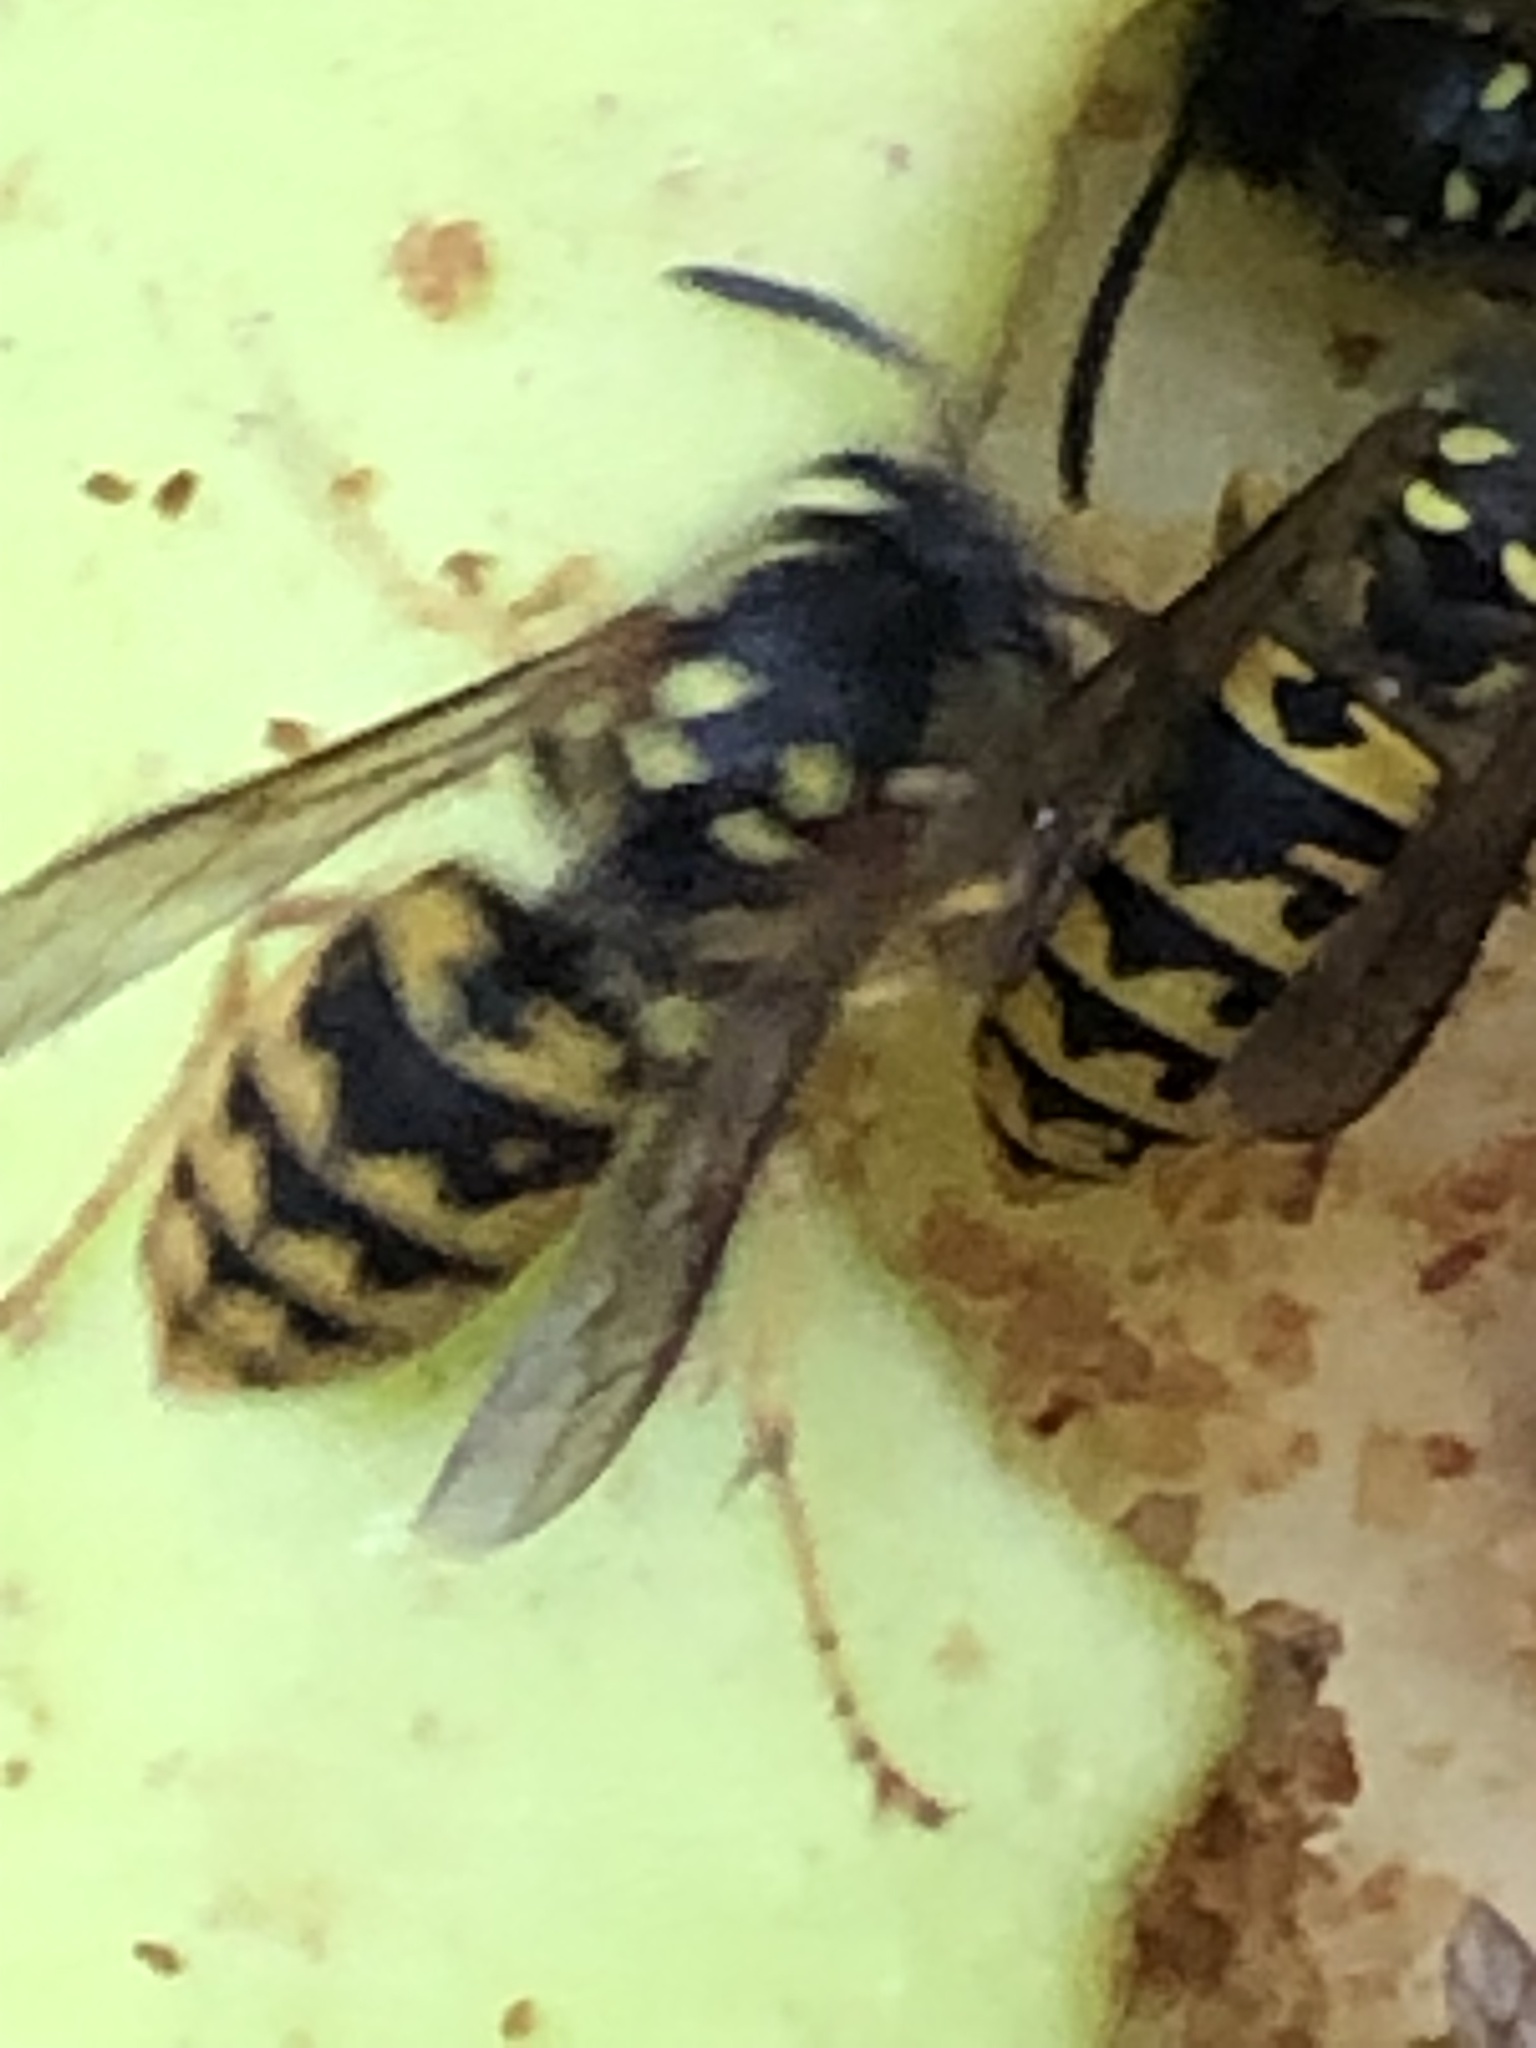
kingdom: Animalia
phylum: Arthropoda
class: Insecta
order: Hymenoptera
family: Vespidae
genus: Vespula
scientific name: Vespula germanica
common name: German wasp
